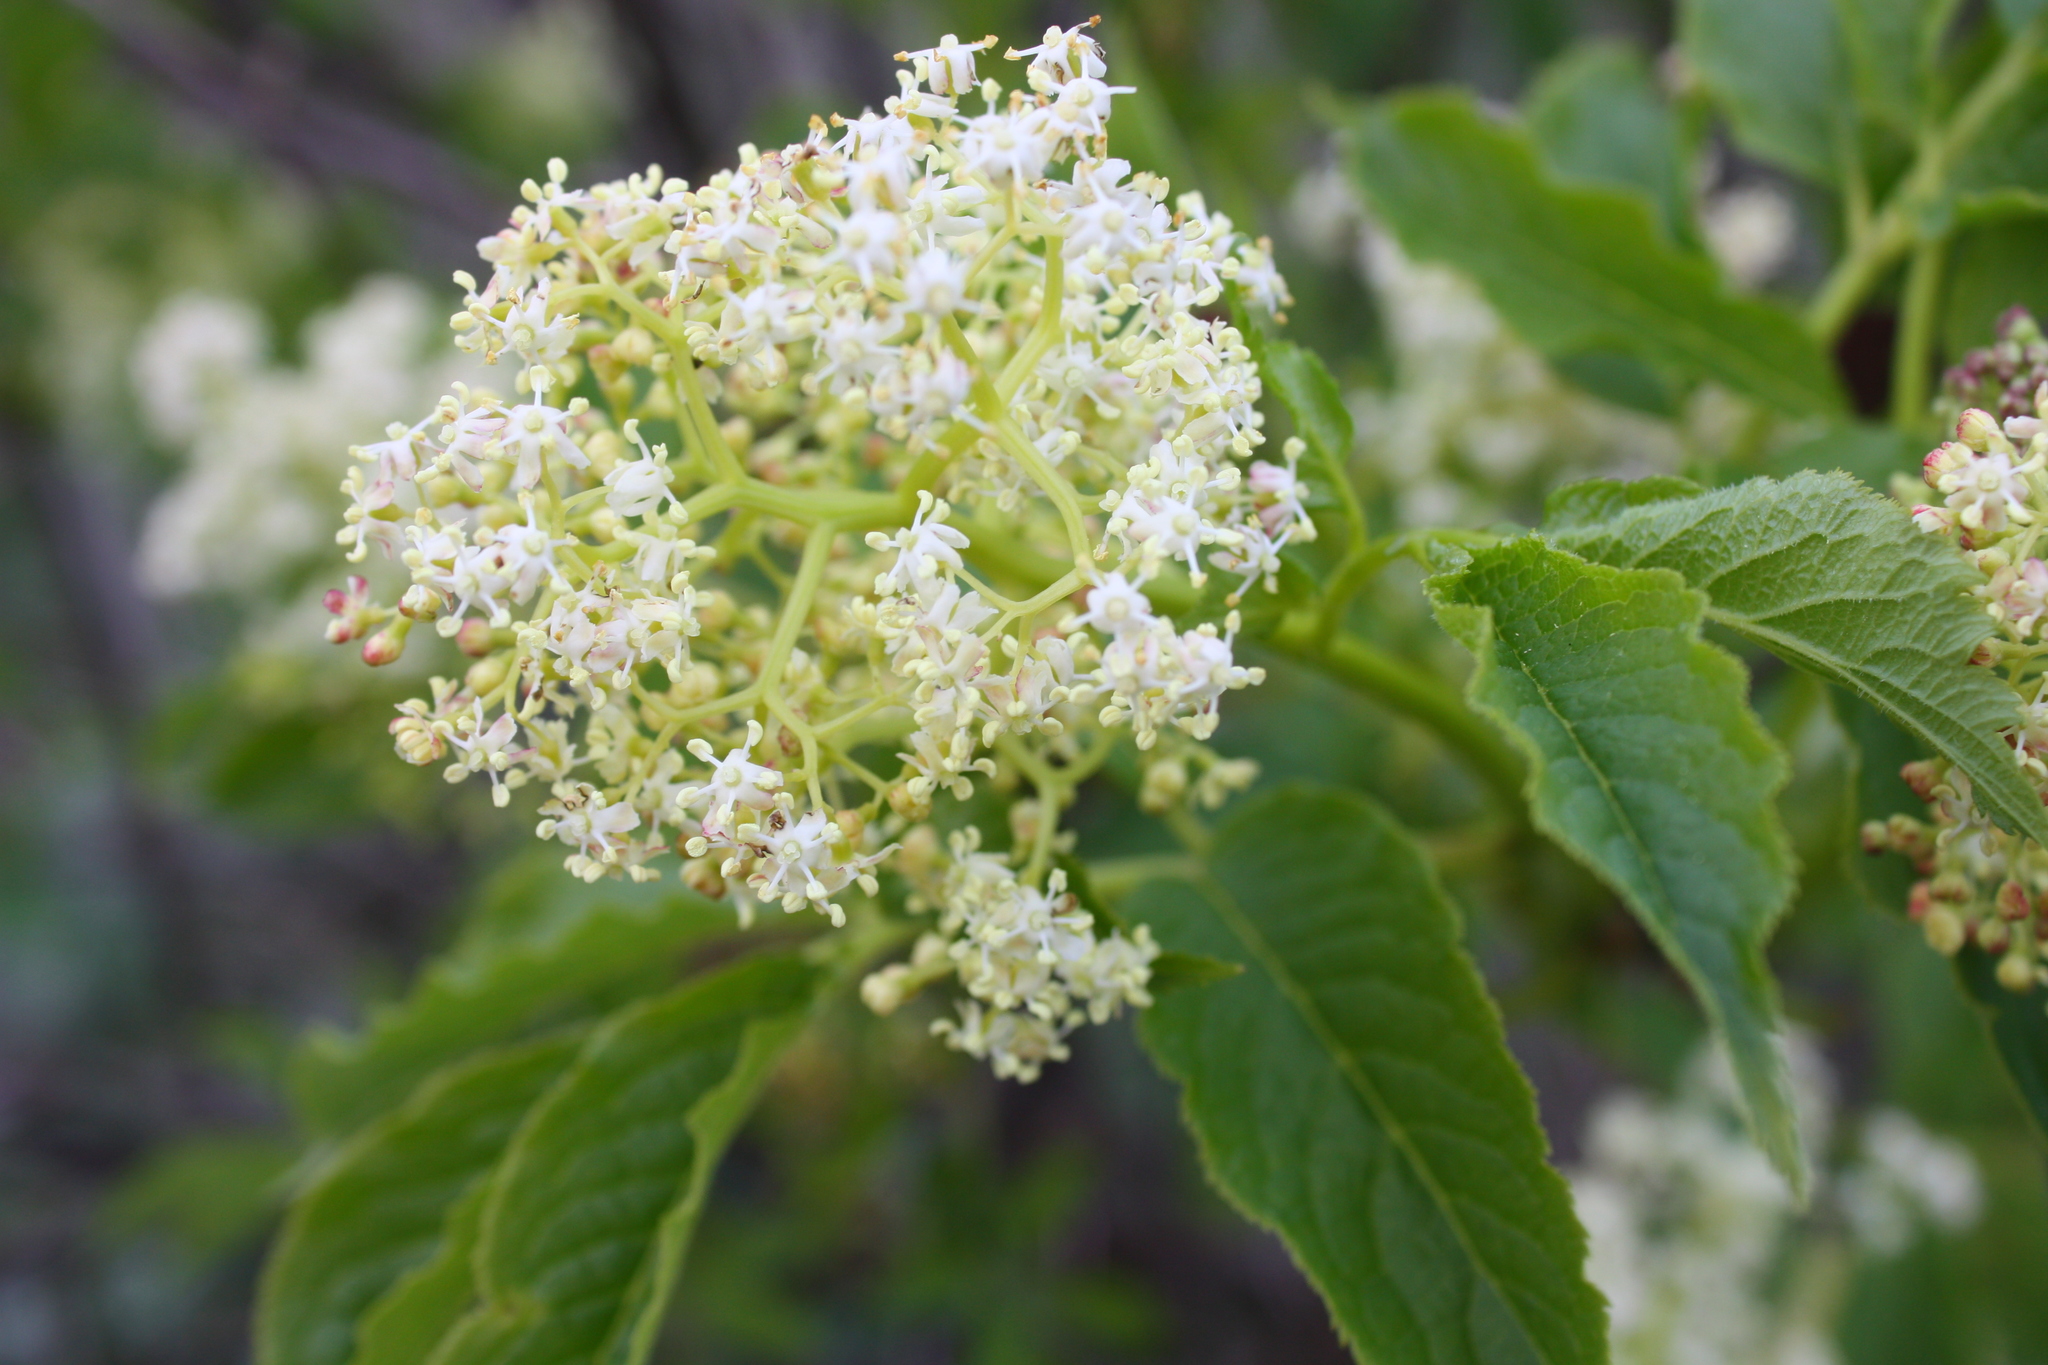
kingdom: Plantae
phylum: Tracheophyta
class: Magnoliopsida
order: Dipsacales
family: Viburnaceae
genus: Sambucus
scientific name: Sambucus racemosa
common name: Red-berried elder
